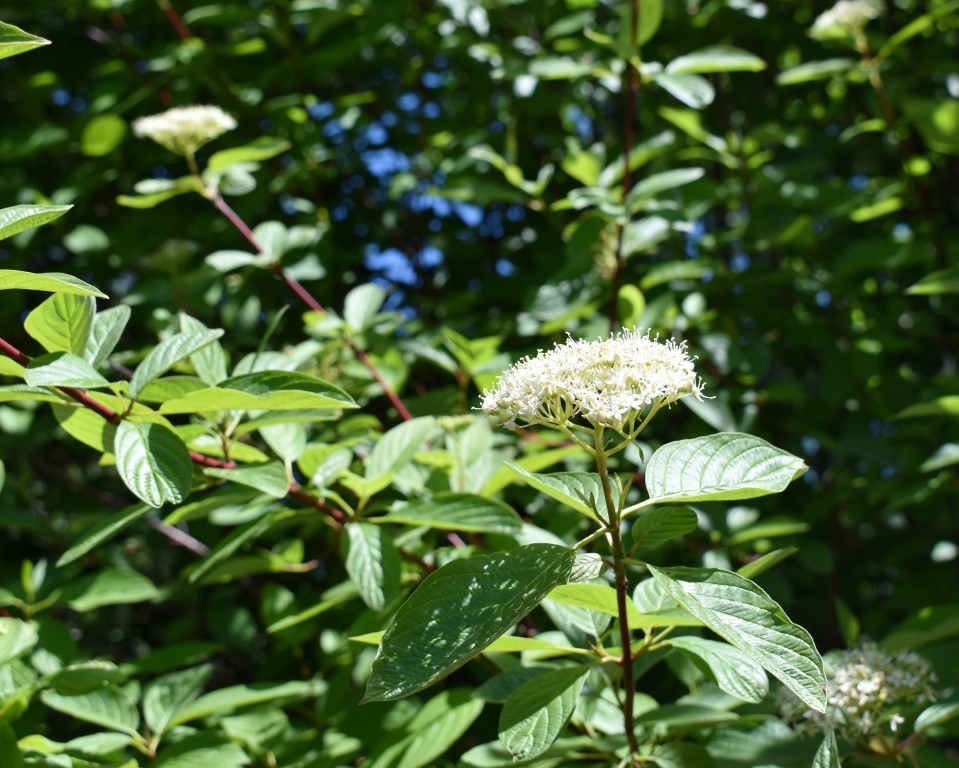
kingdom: Plantae
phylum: Tracheophyta
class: Magnoliopsida
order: Cornales
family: Cornaceae
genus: Cornus
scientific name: Cornus sericea
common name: Red-osier dogwood
